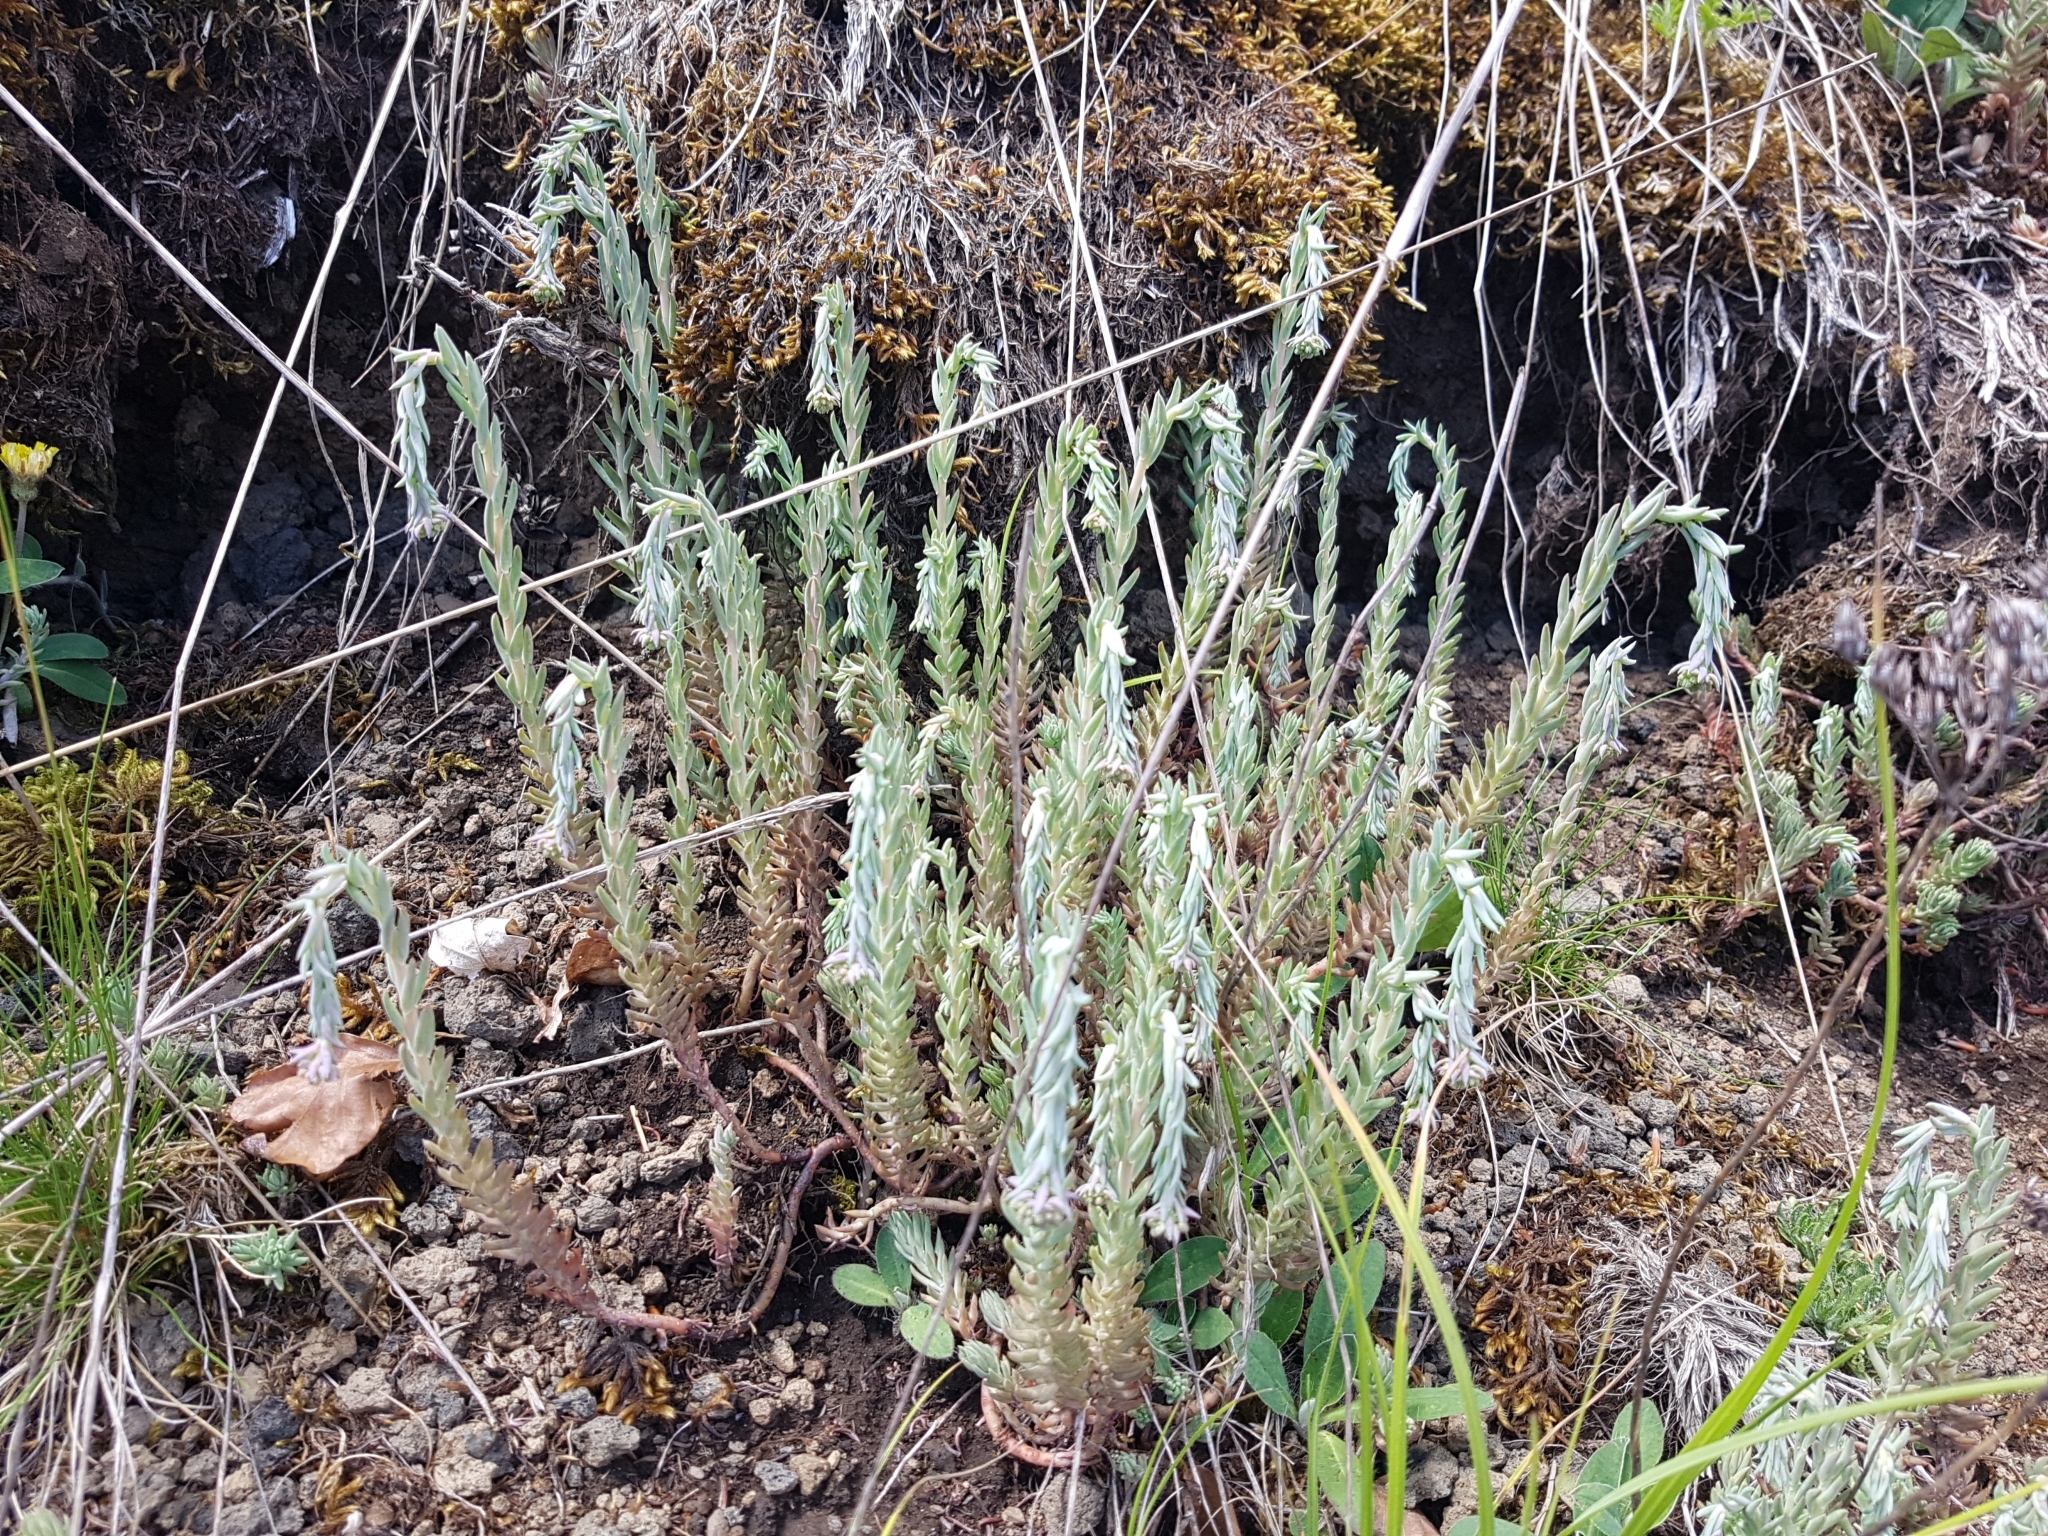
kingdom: Plantae
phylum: Tracheophyta
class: Magnoliopsida
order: Saxifragales
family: Crassulaceae
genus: Petrosedum
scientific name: Petrosedum rupestre
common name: Jenny's stonecrop
